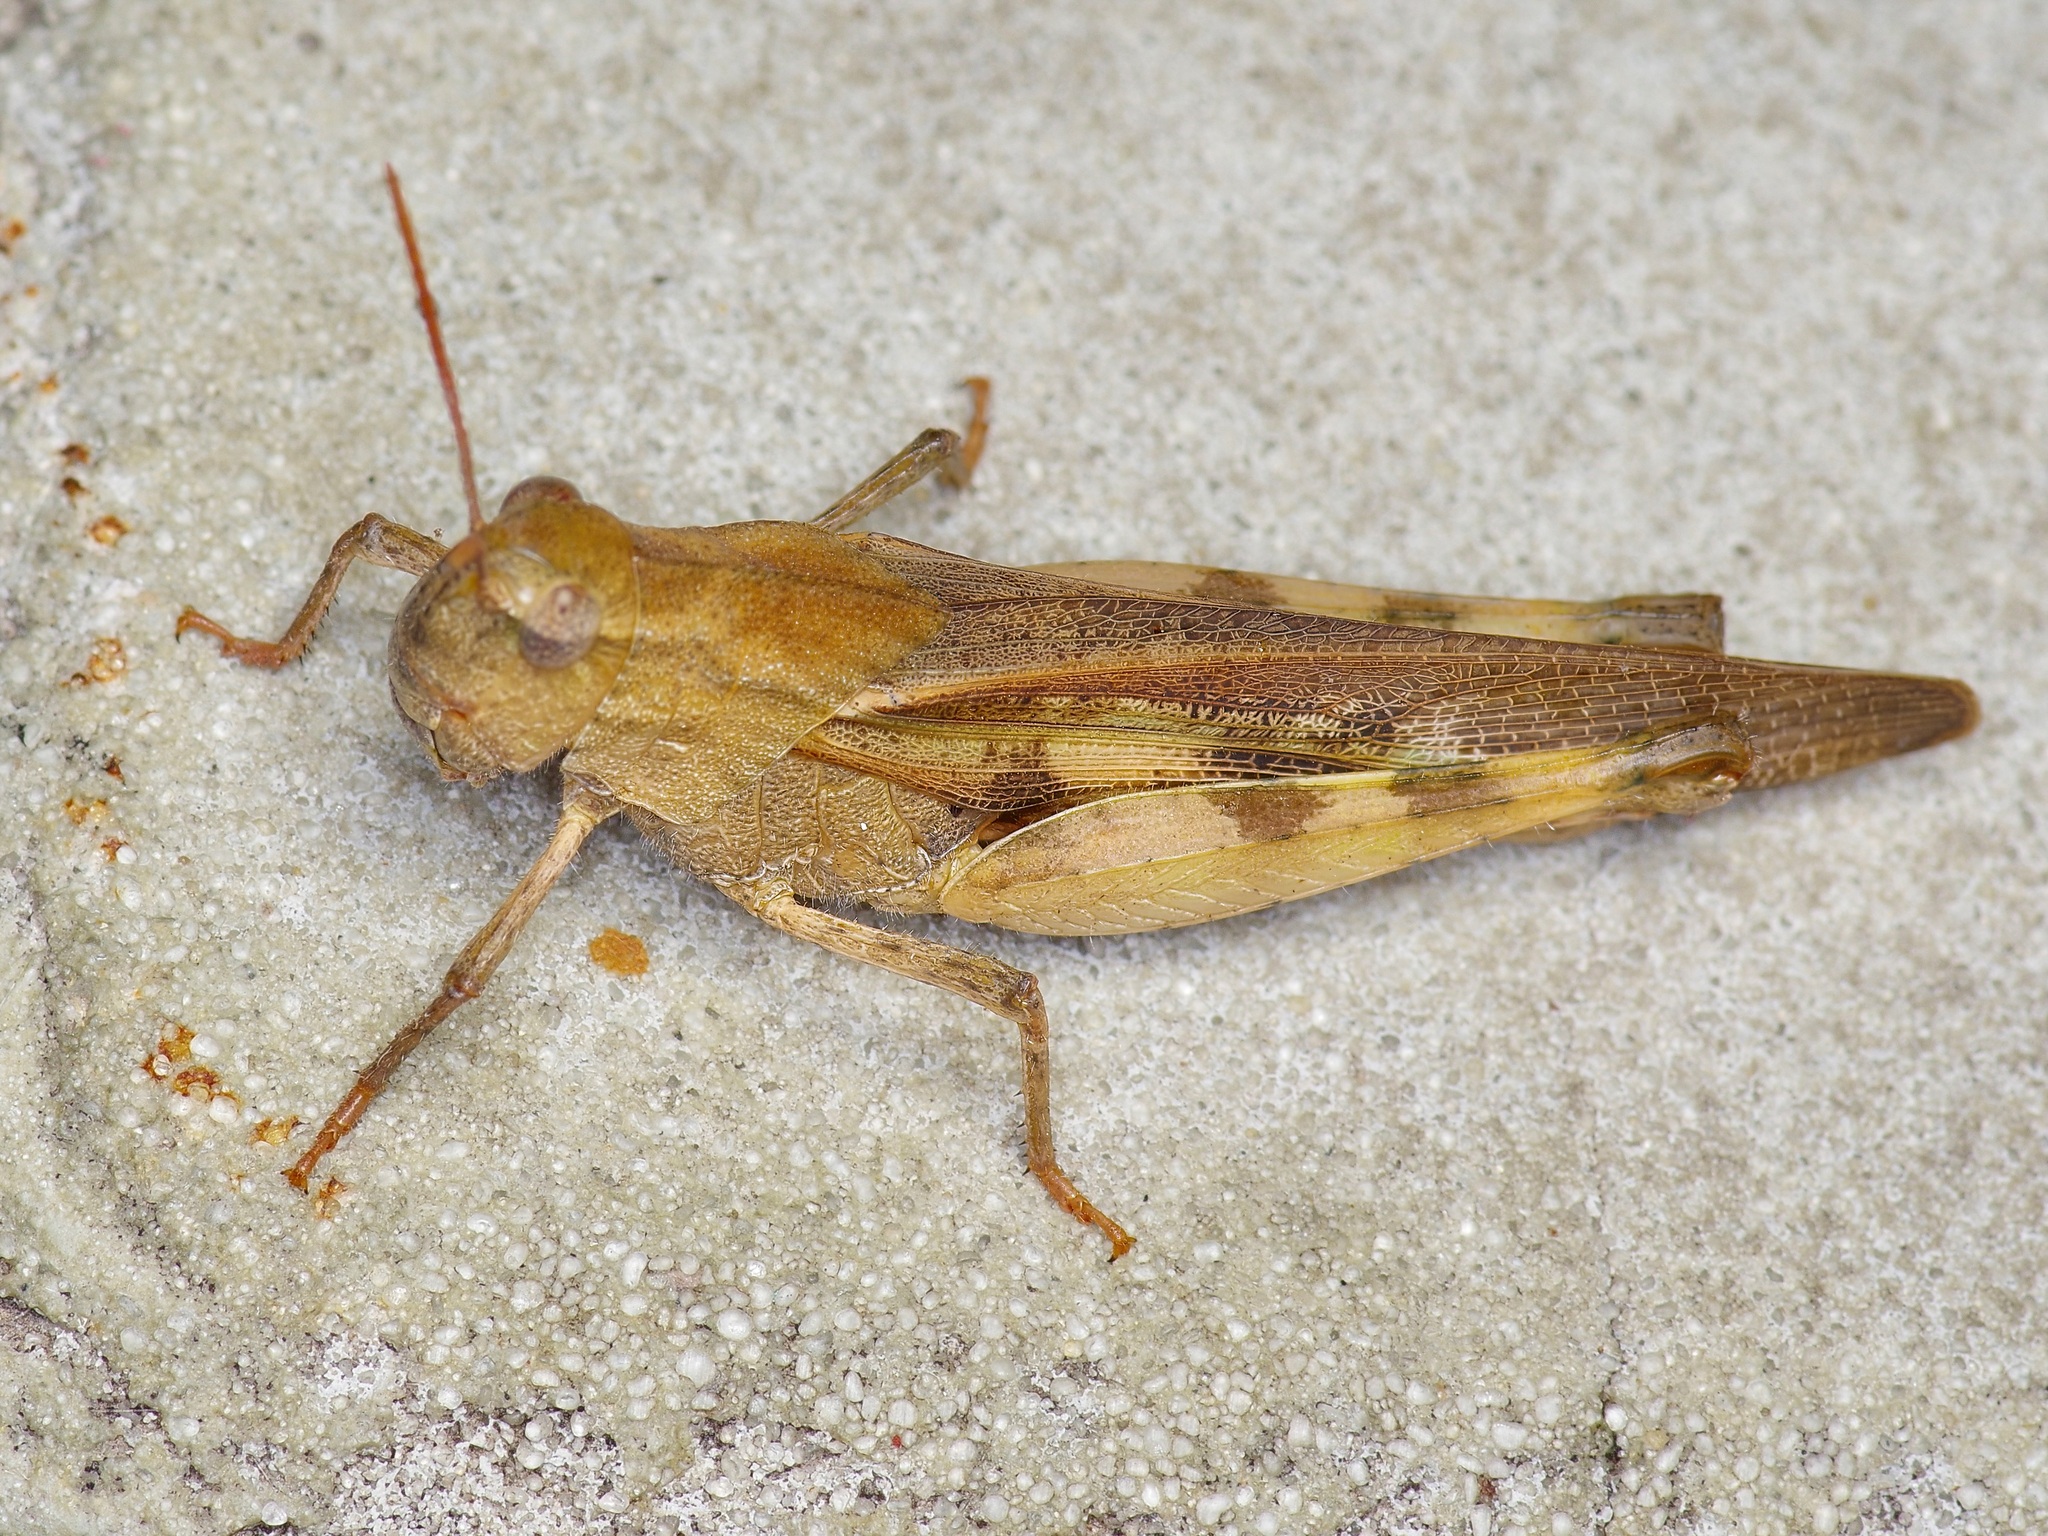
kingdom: Animalia
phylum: Arthropoda
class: Insecta
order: Orthoptera
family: Acrididae
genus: Chortophaga
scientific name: Chortophaga viridifasciata
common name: Green-striped grasshopper
